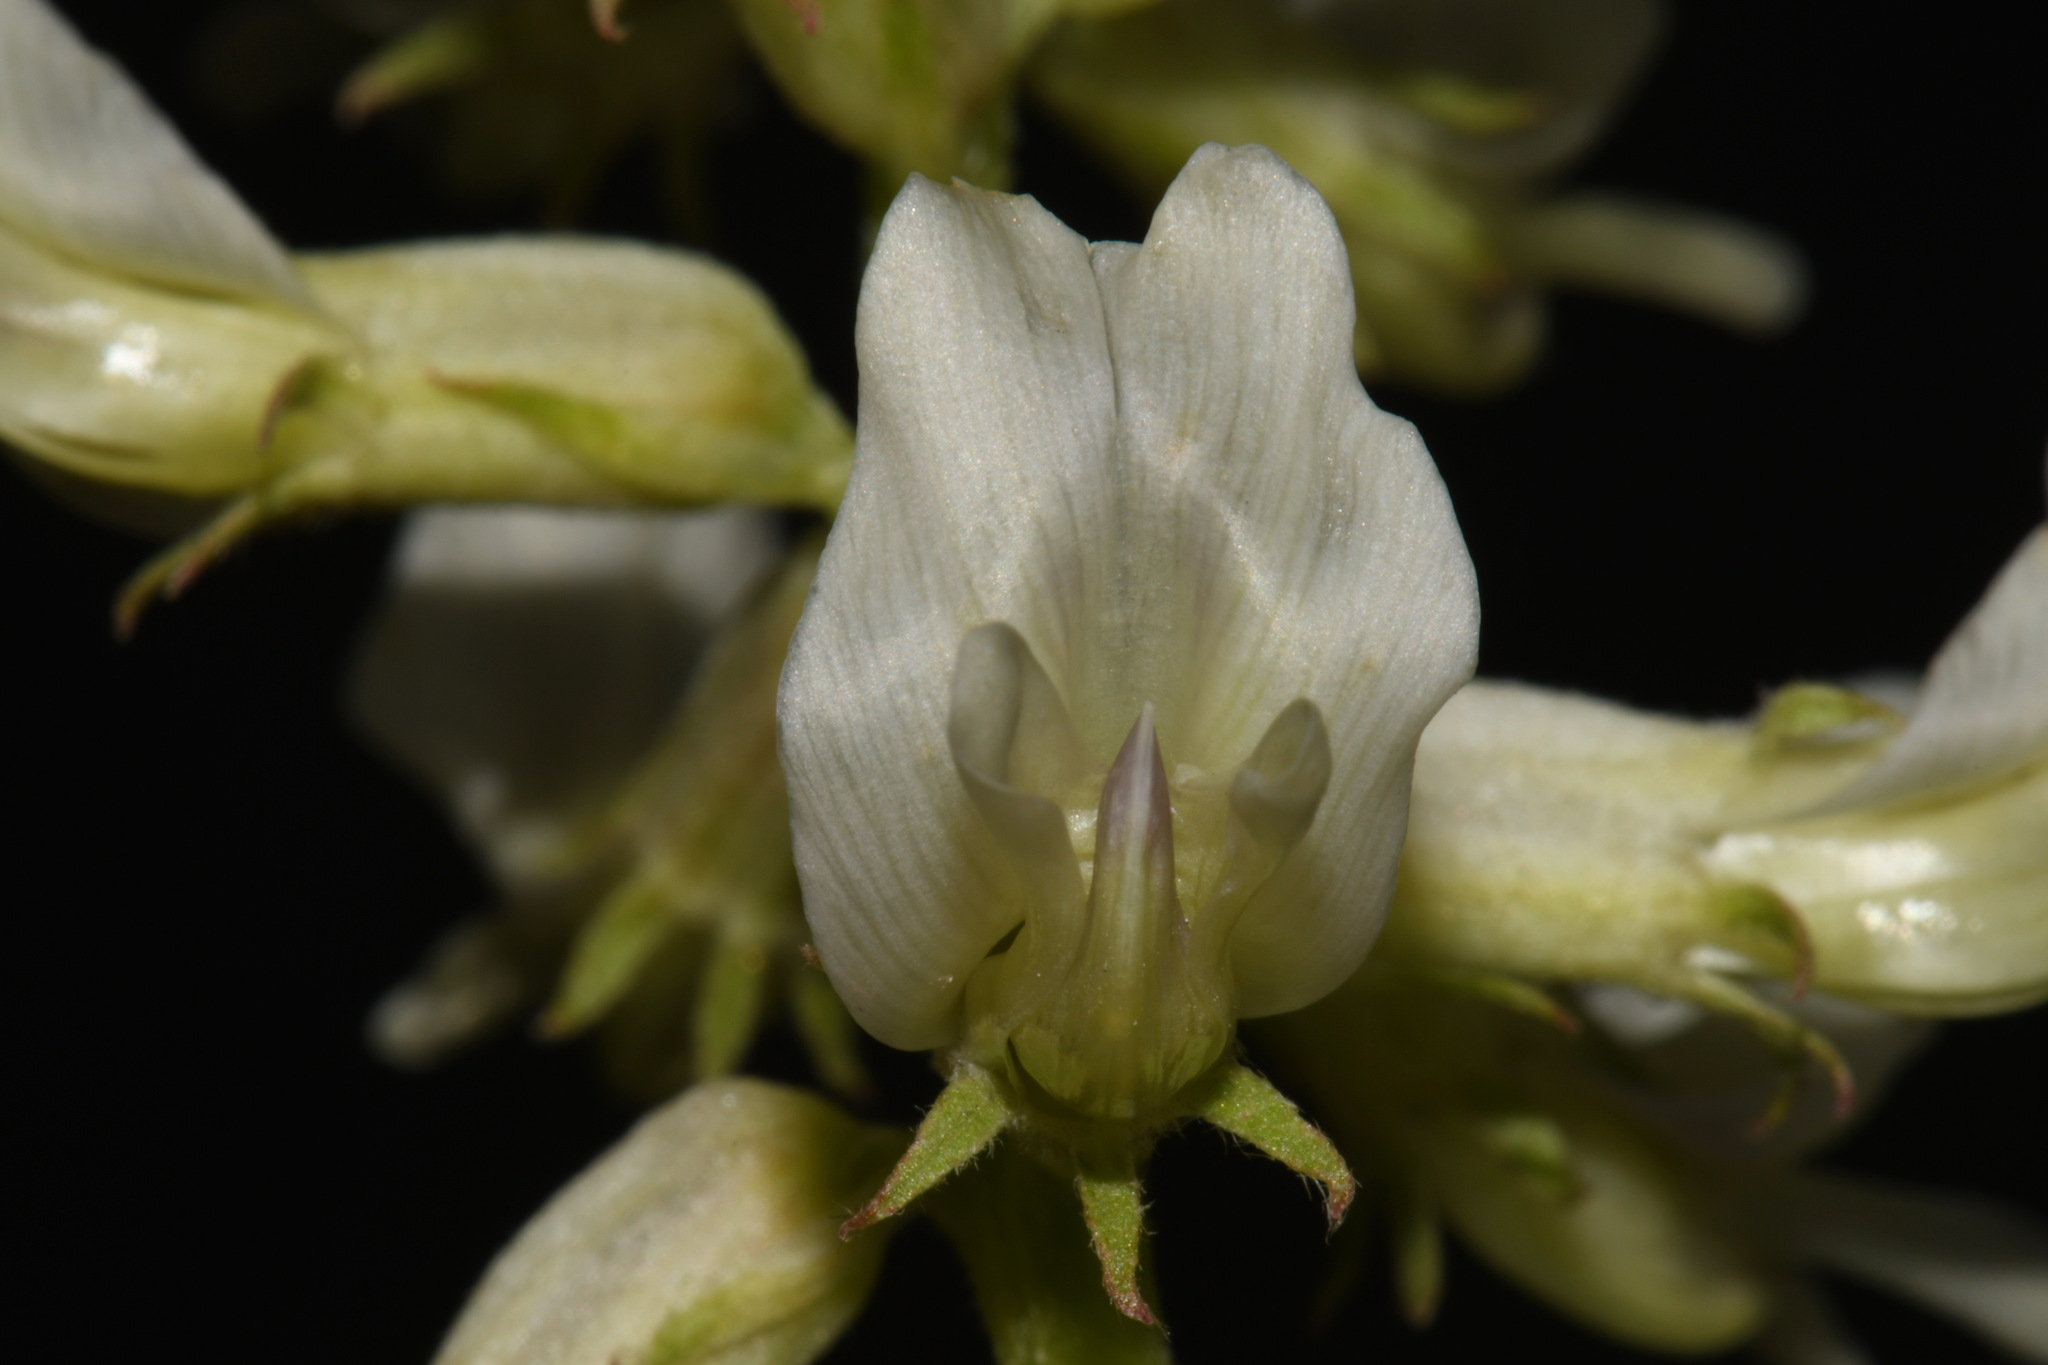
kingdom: Plantae
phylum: Tracheophyta
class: Magnoliopsida
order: Fabales
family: Fabaceae
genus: Astragalus
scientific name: Astragalus oreganus
